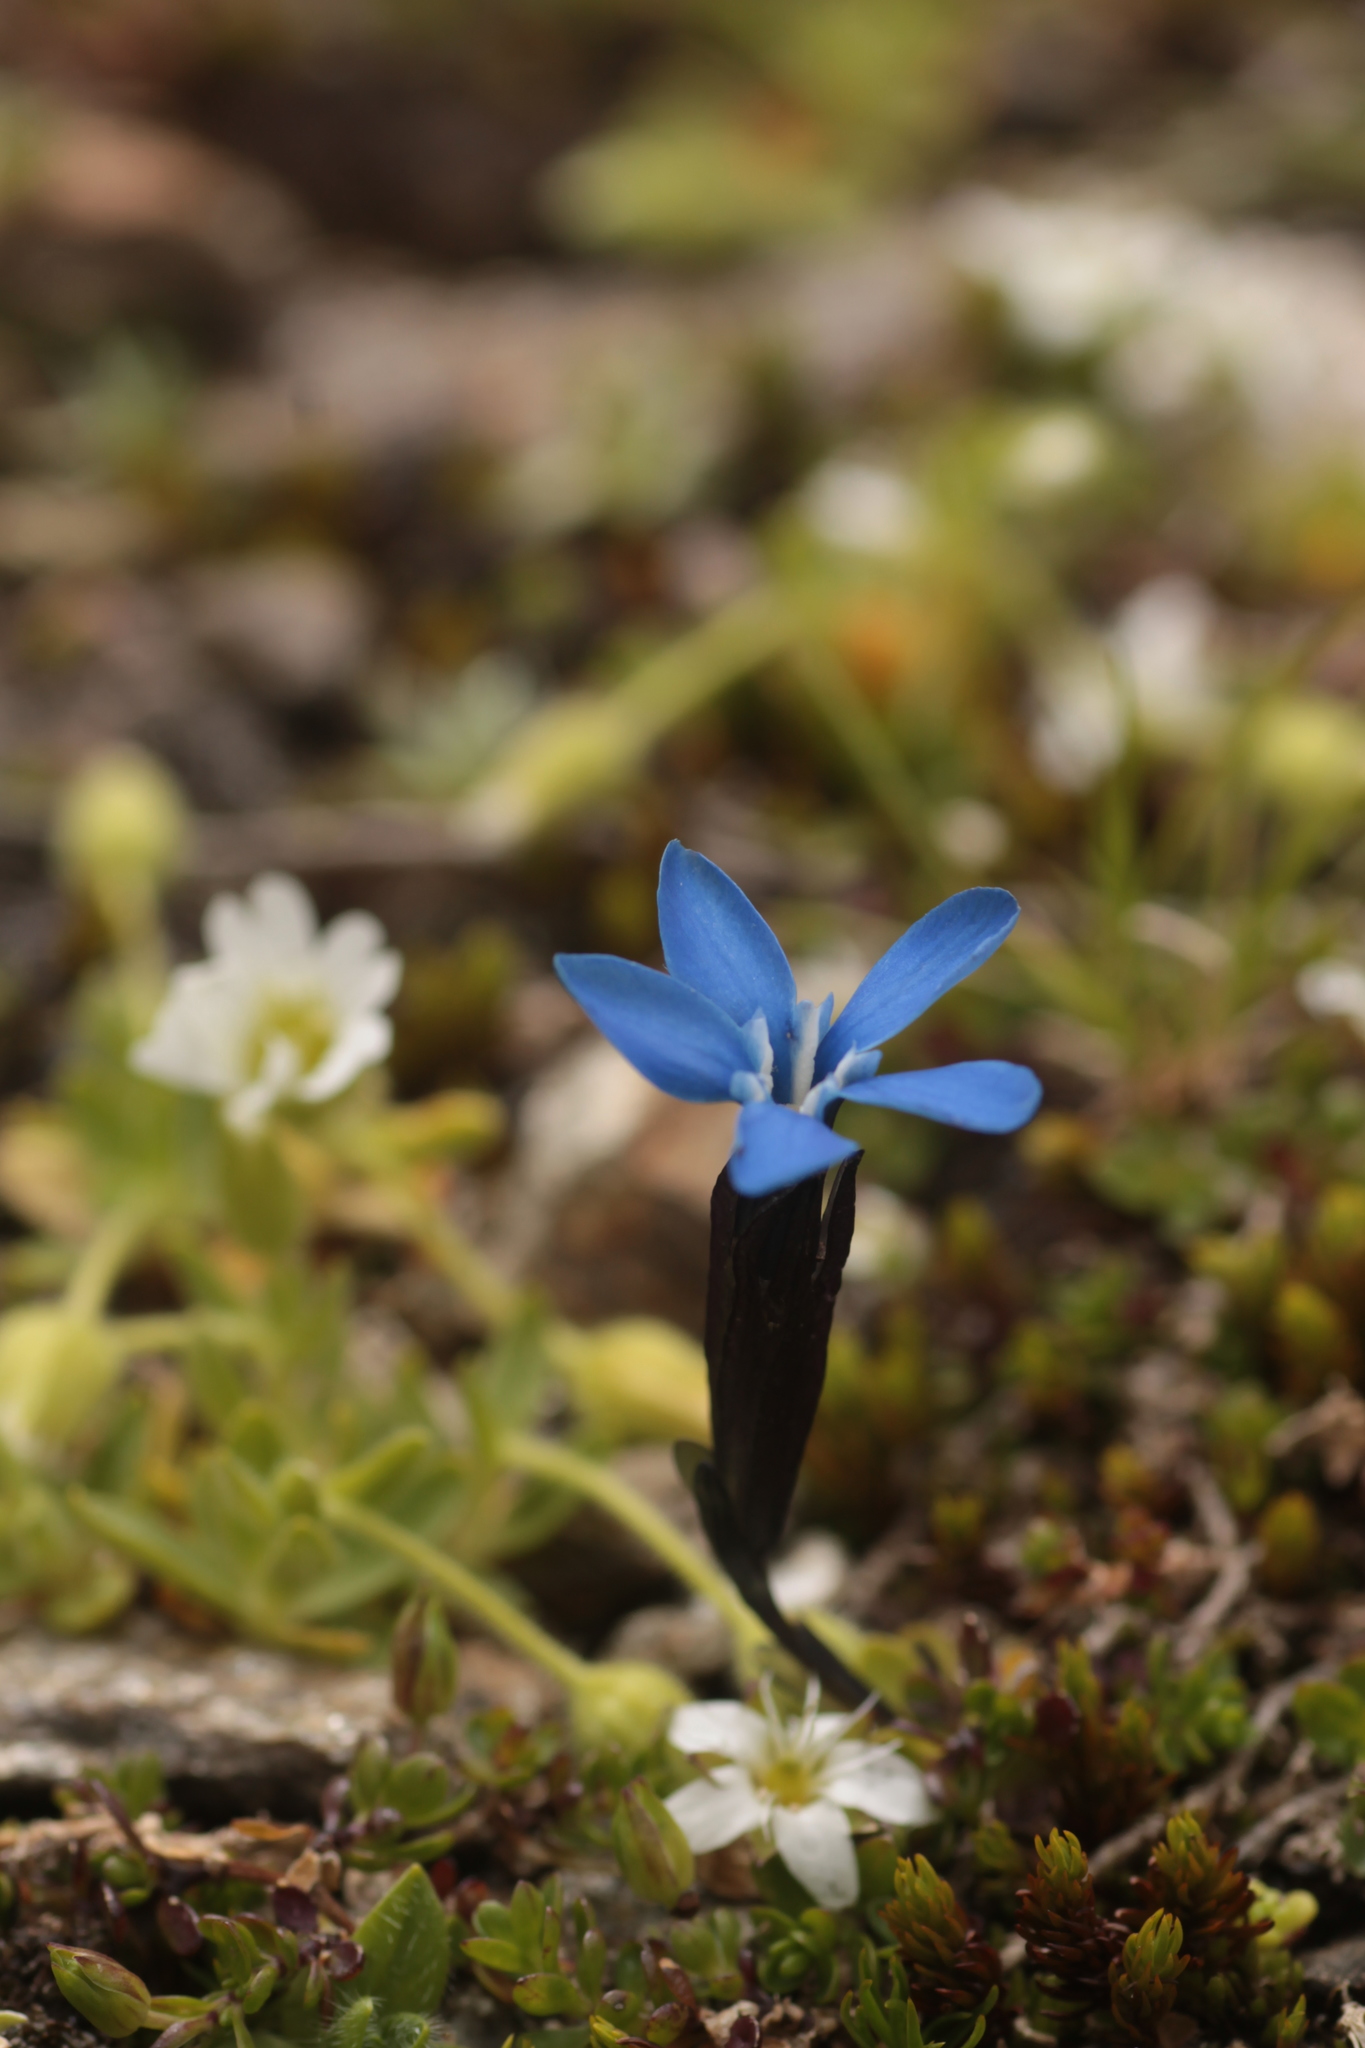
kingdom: Plantae
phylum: Tracheophyta
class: Magnoliopsida
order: Gentianales
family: Gentianaceae
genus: Gentiana
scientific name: Gentiana bavarica
